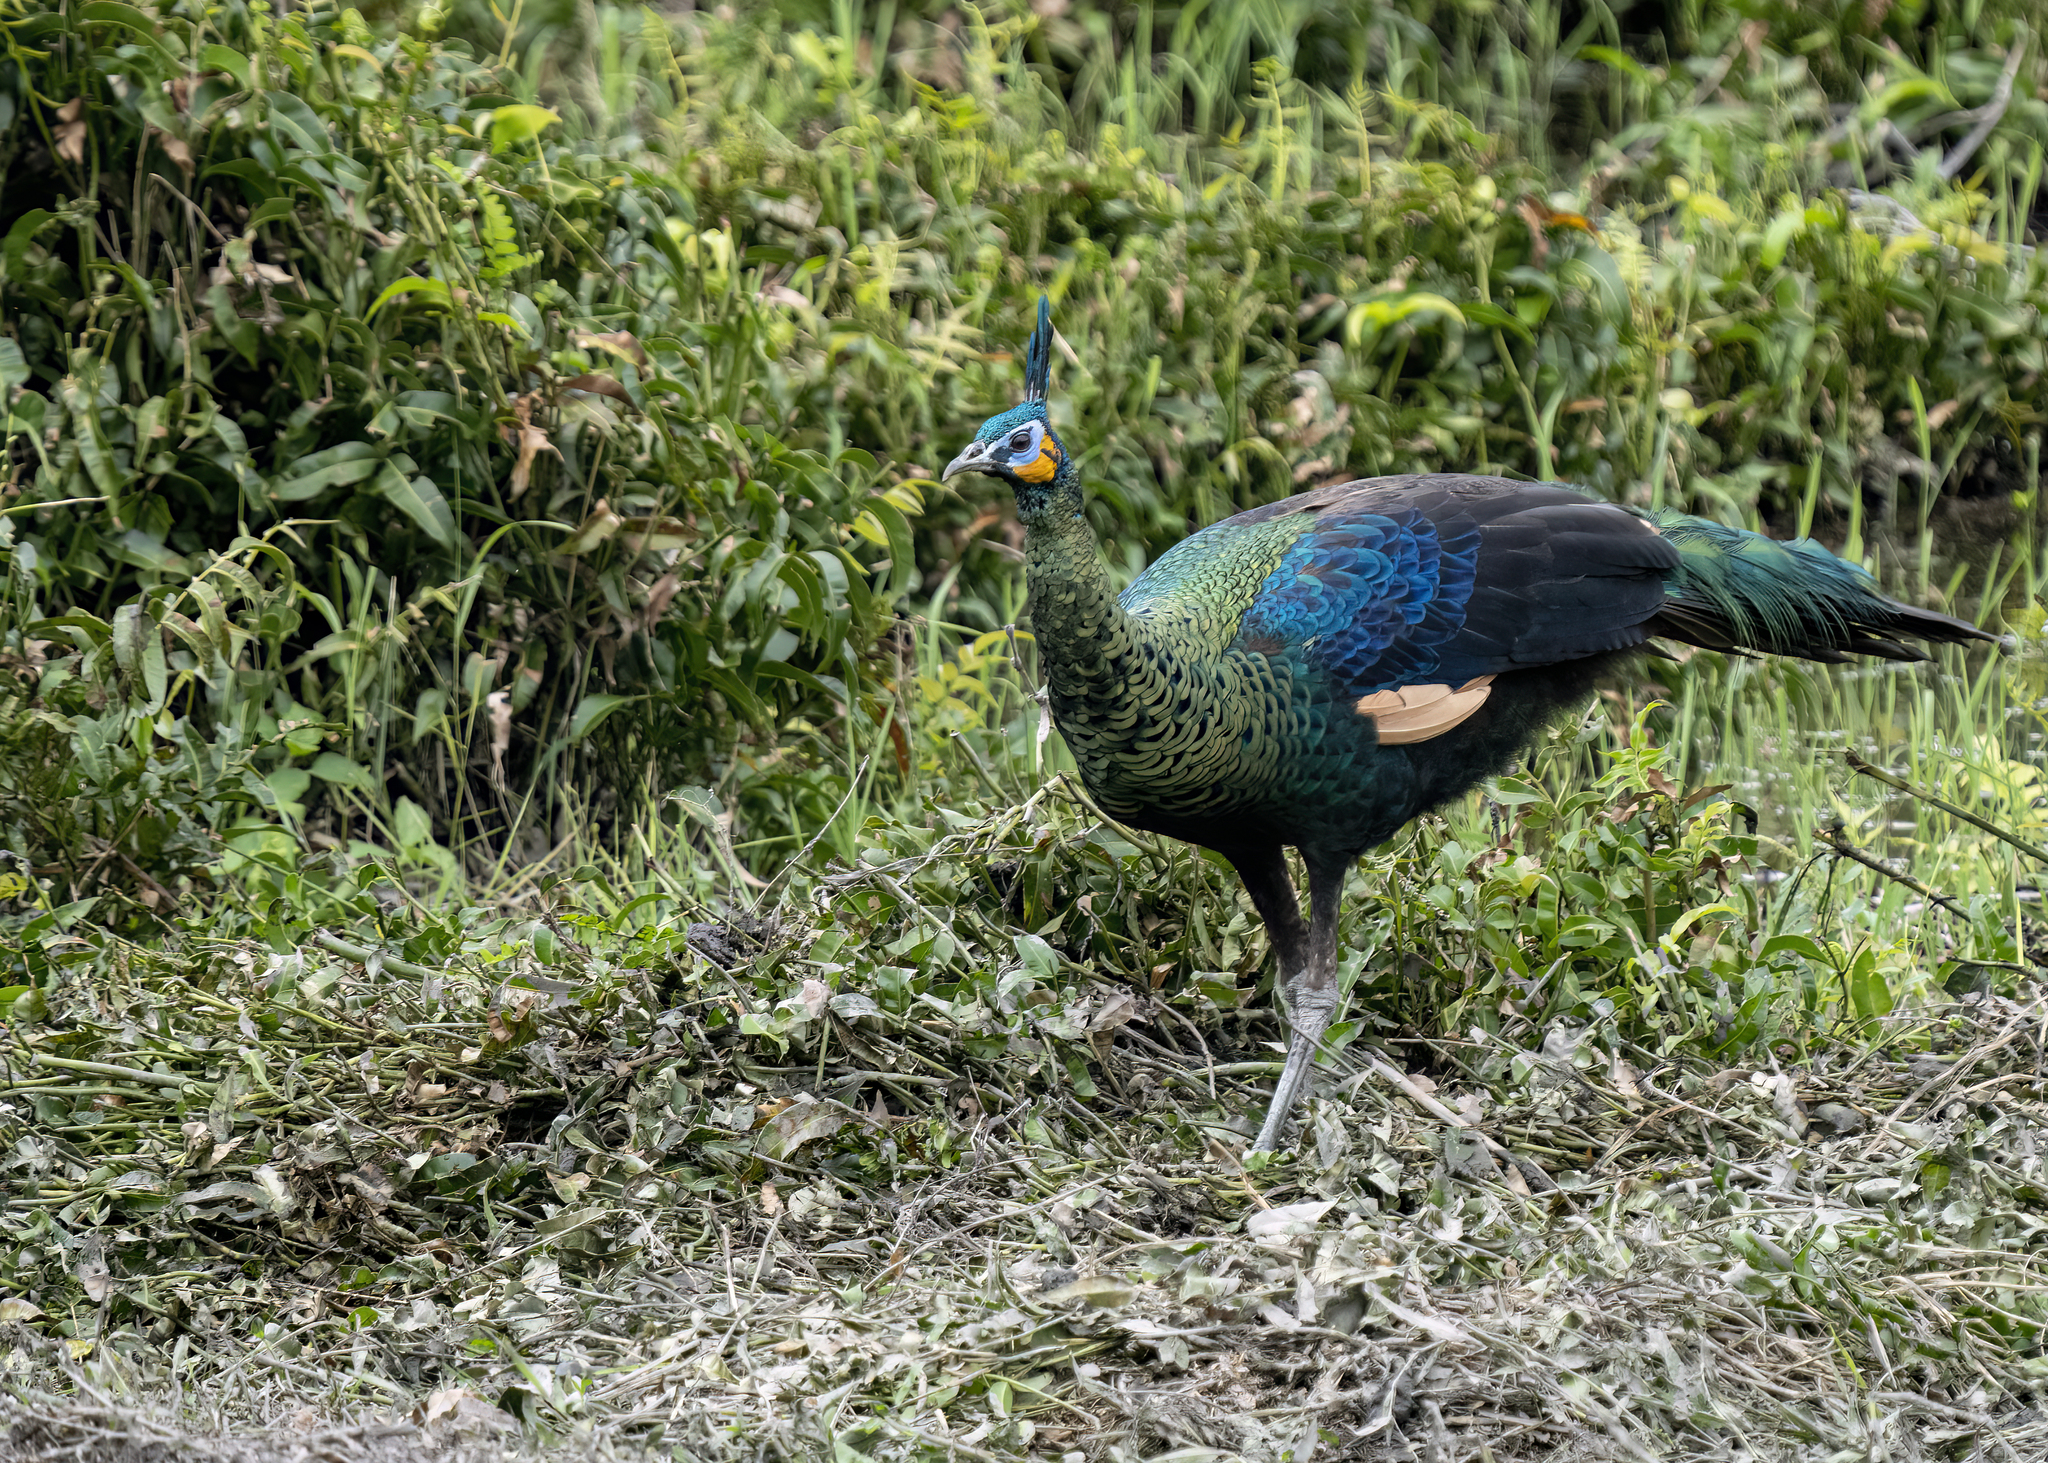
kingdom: Animalia
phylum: Chordata
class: Aves
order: Galliformes
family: Phasianidae
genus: Pavo
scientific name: Pavo muticus
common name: Green peafowl
